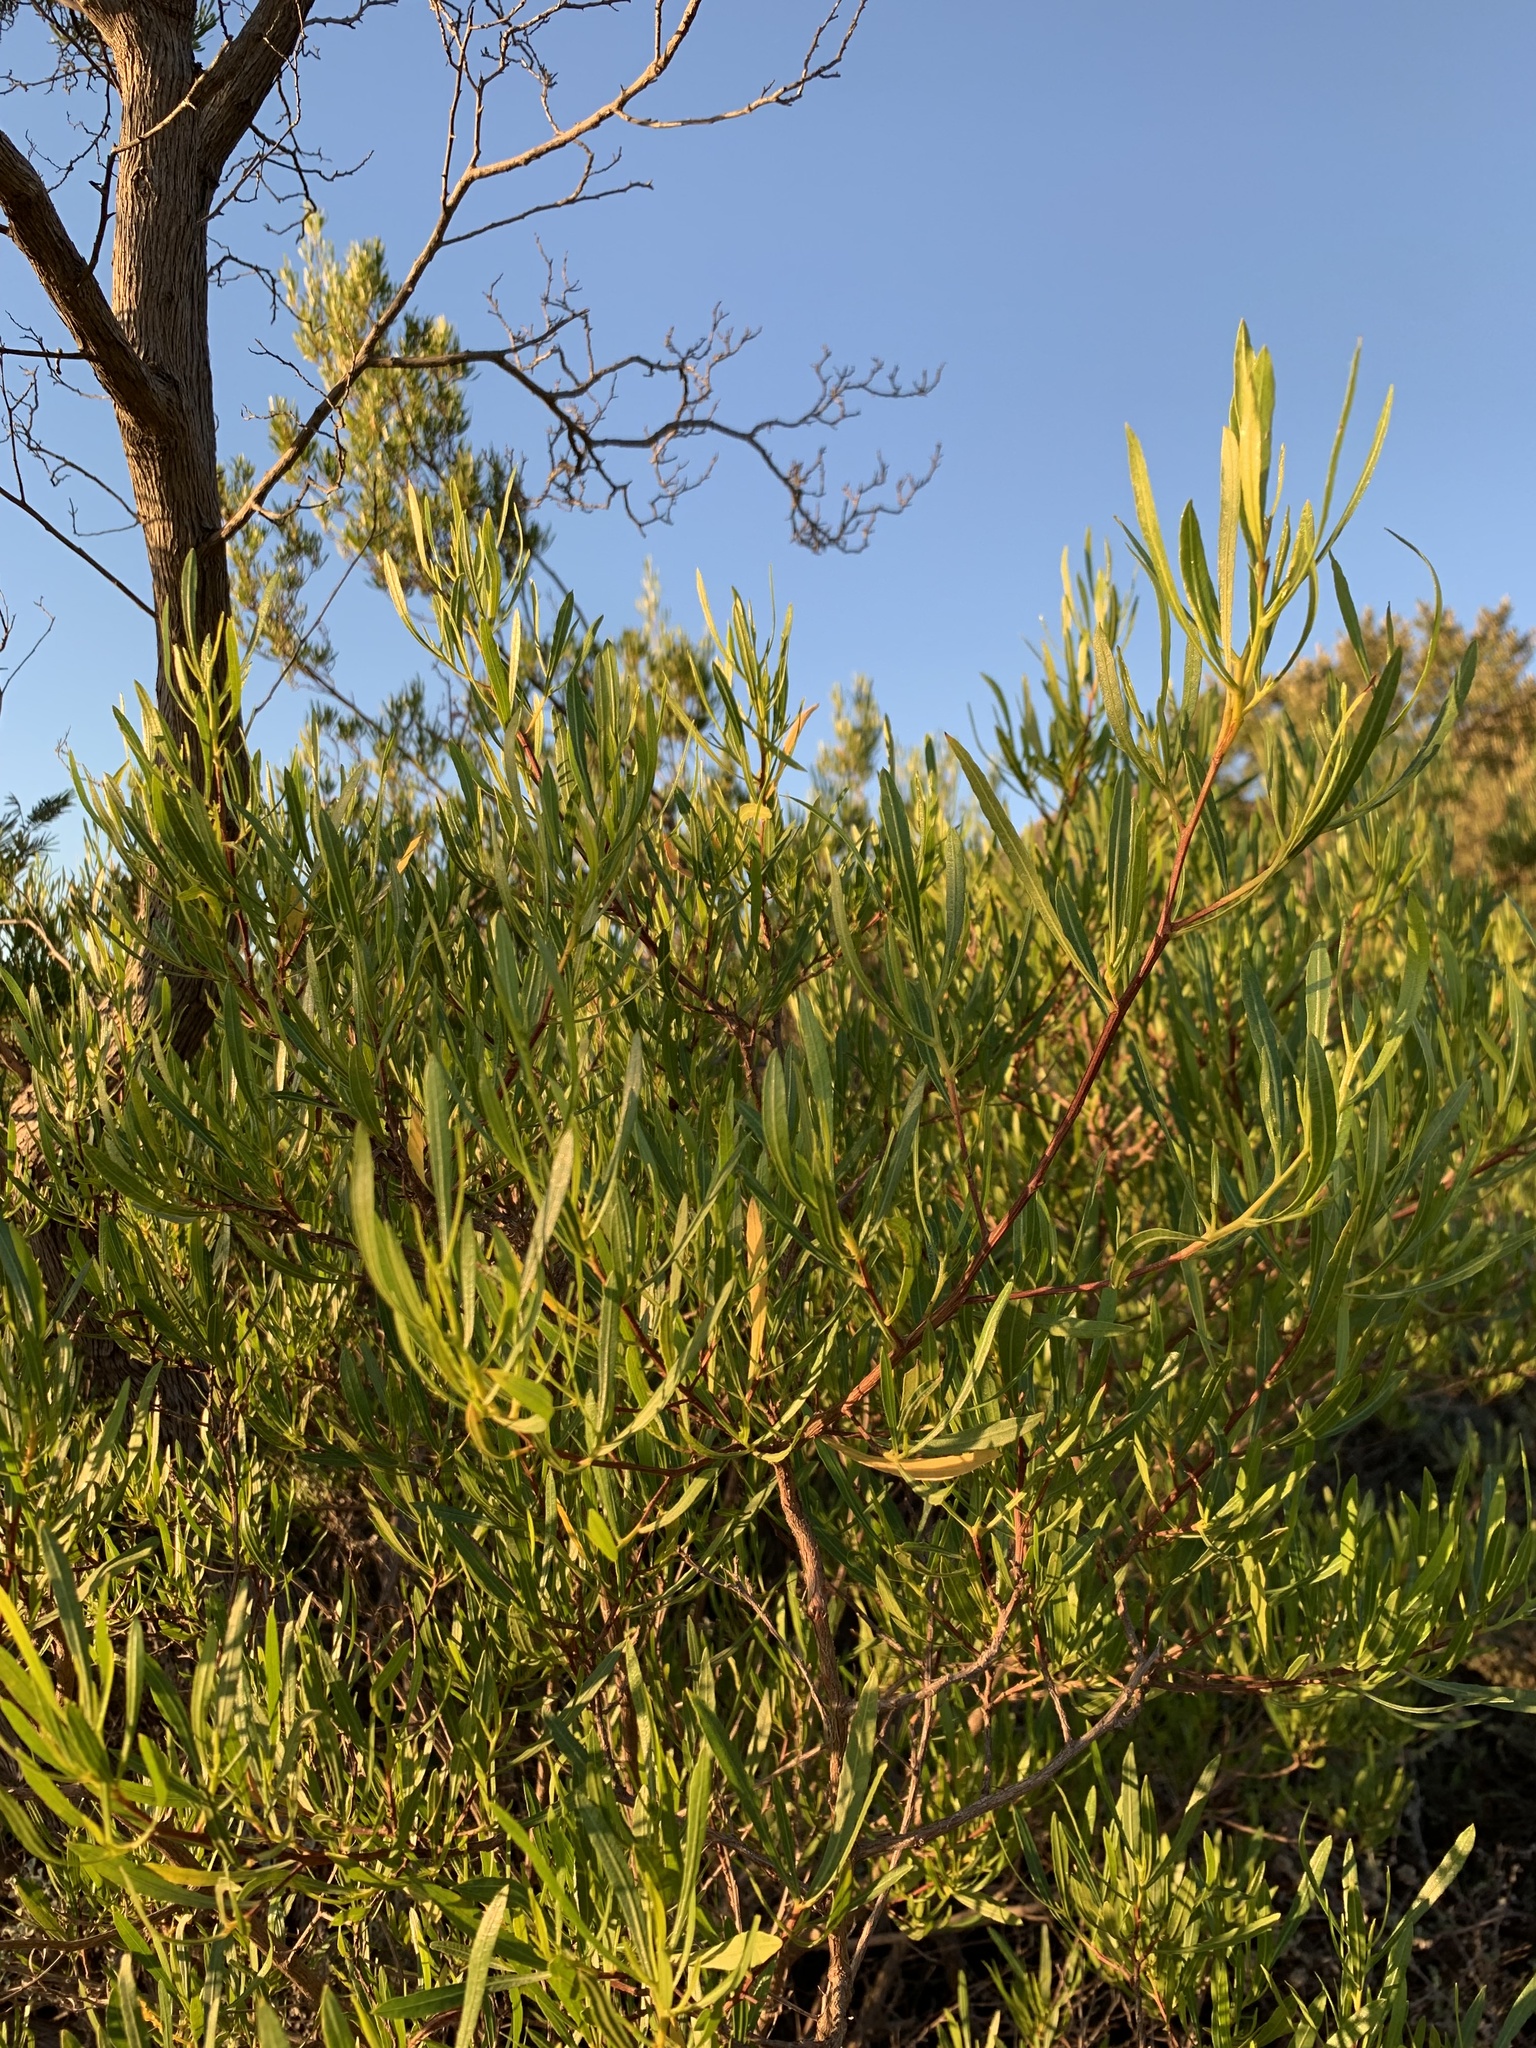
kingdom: Plantae
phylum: Tracheophyta
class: Magnoliopsida
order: Sapindales
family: Sapindaceae
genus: Dodonaea
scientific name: Dodonaea viscosa
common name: Hopbush
